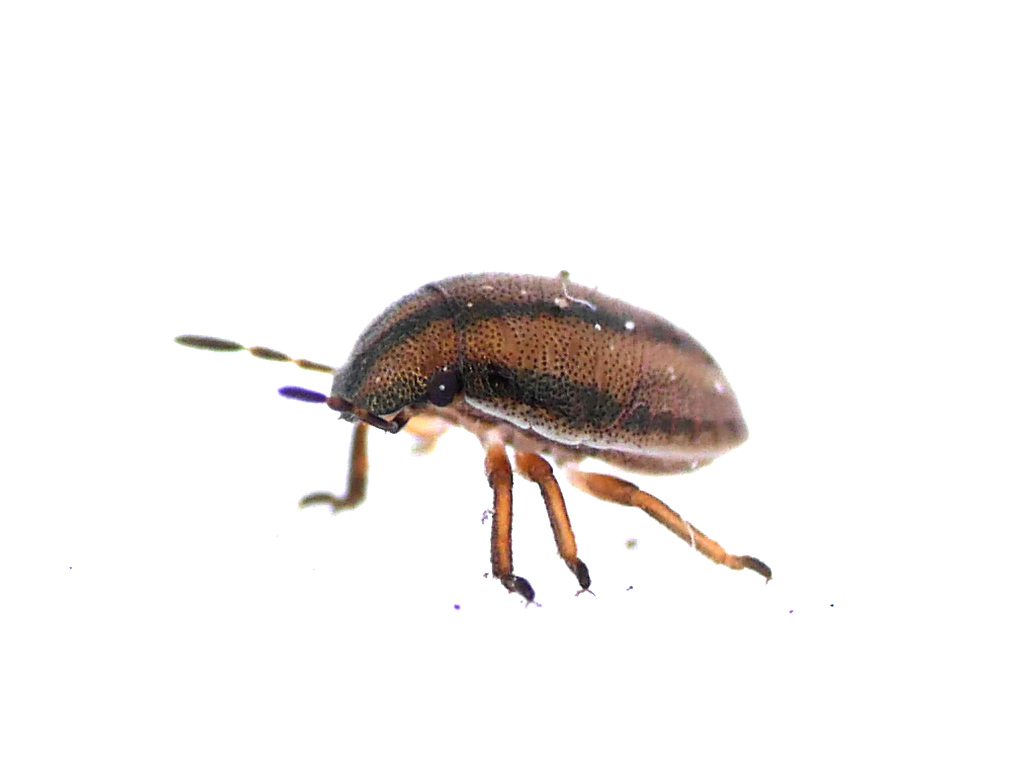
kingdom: Animalia
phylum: Arthropoda
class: Insecta
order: Hemiptera
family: Pentatomidae
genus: Neottiglossa
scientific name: Neottiglossa pusilla
